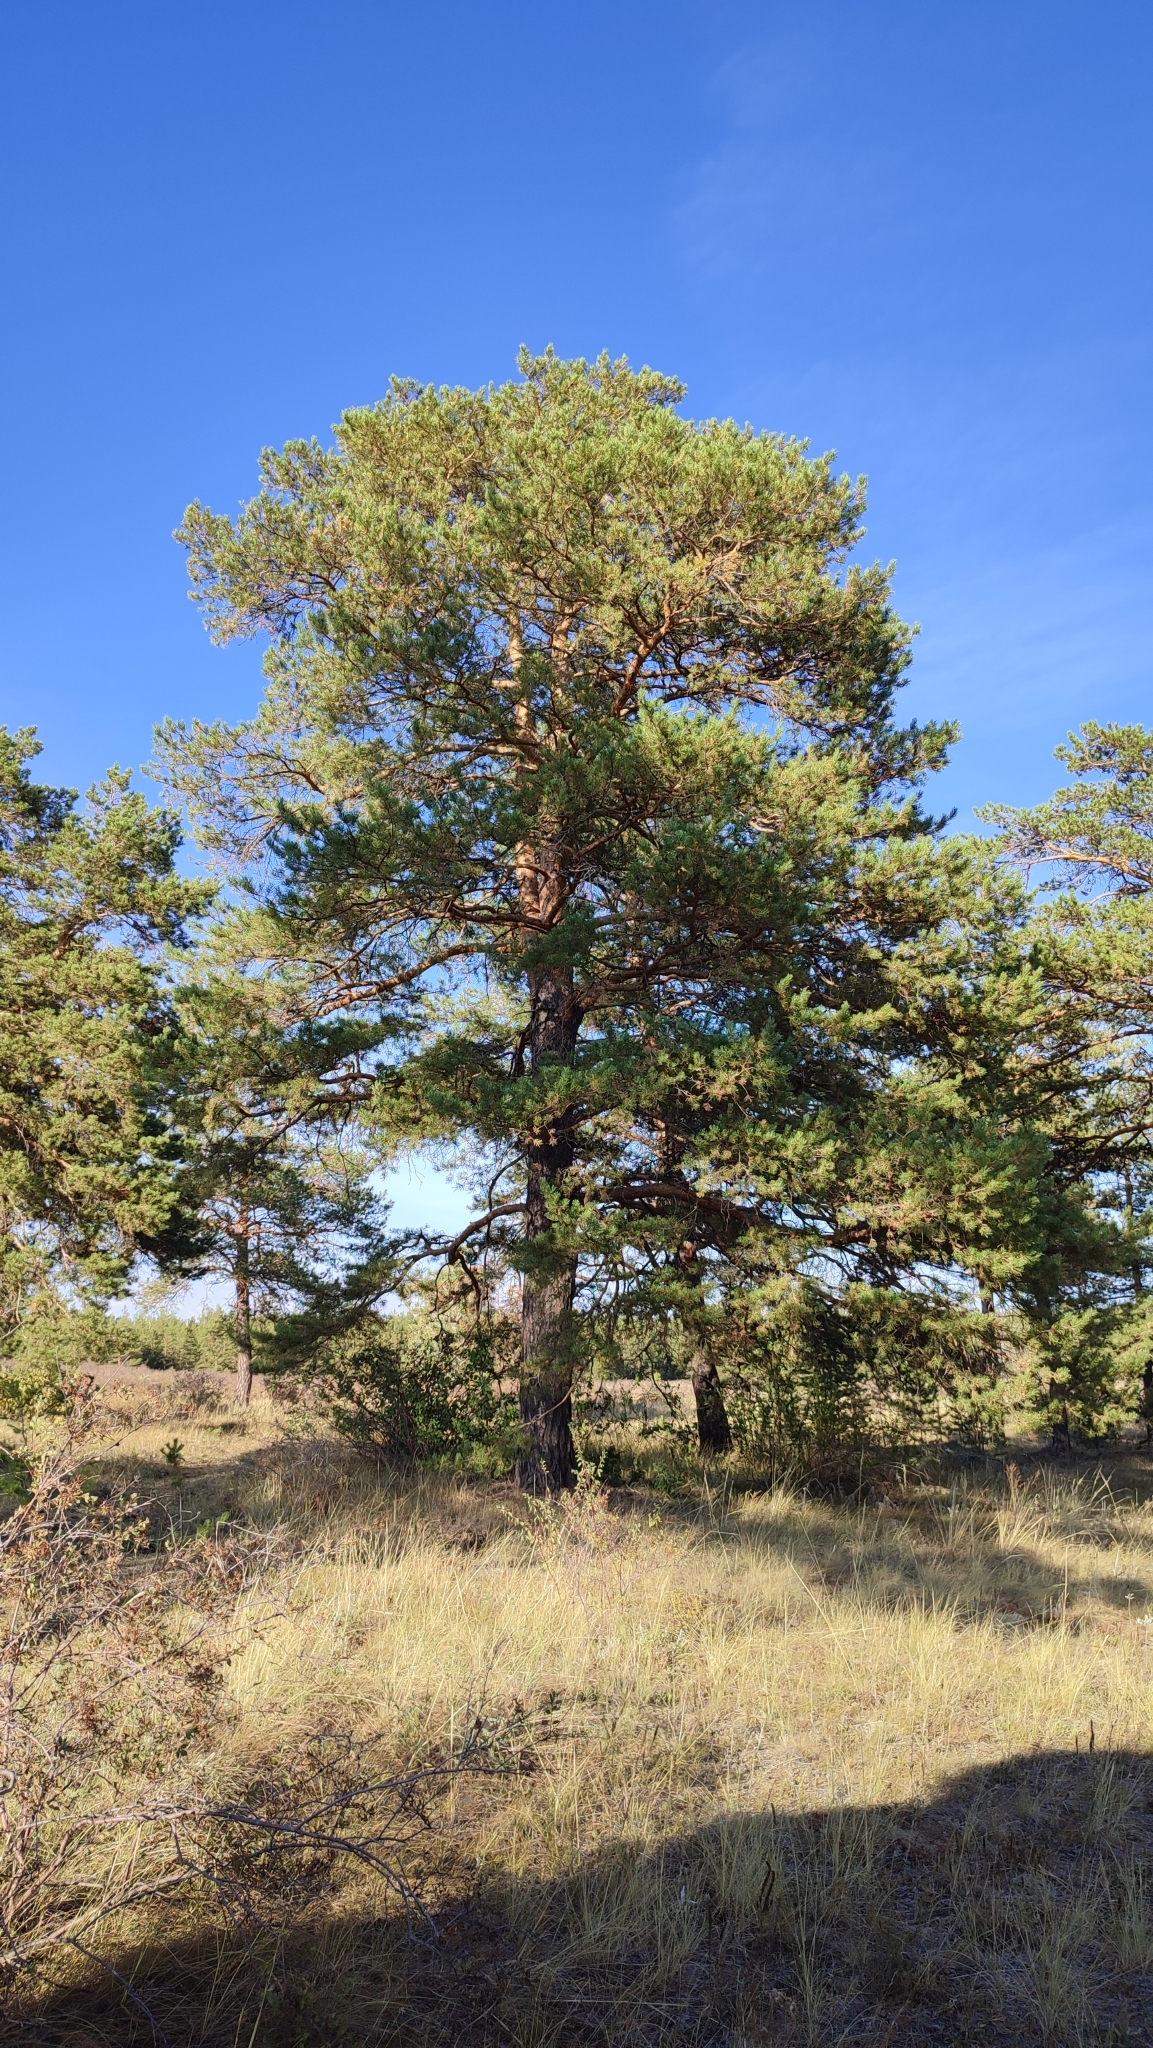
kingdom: Plantae
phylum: Tracheophyta
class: Pinopsida
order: Pinales
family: Pinaceae
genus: Pinus
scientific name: Pinus sylvestris
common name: Scots pine
